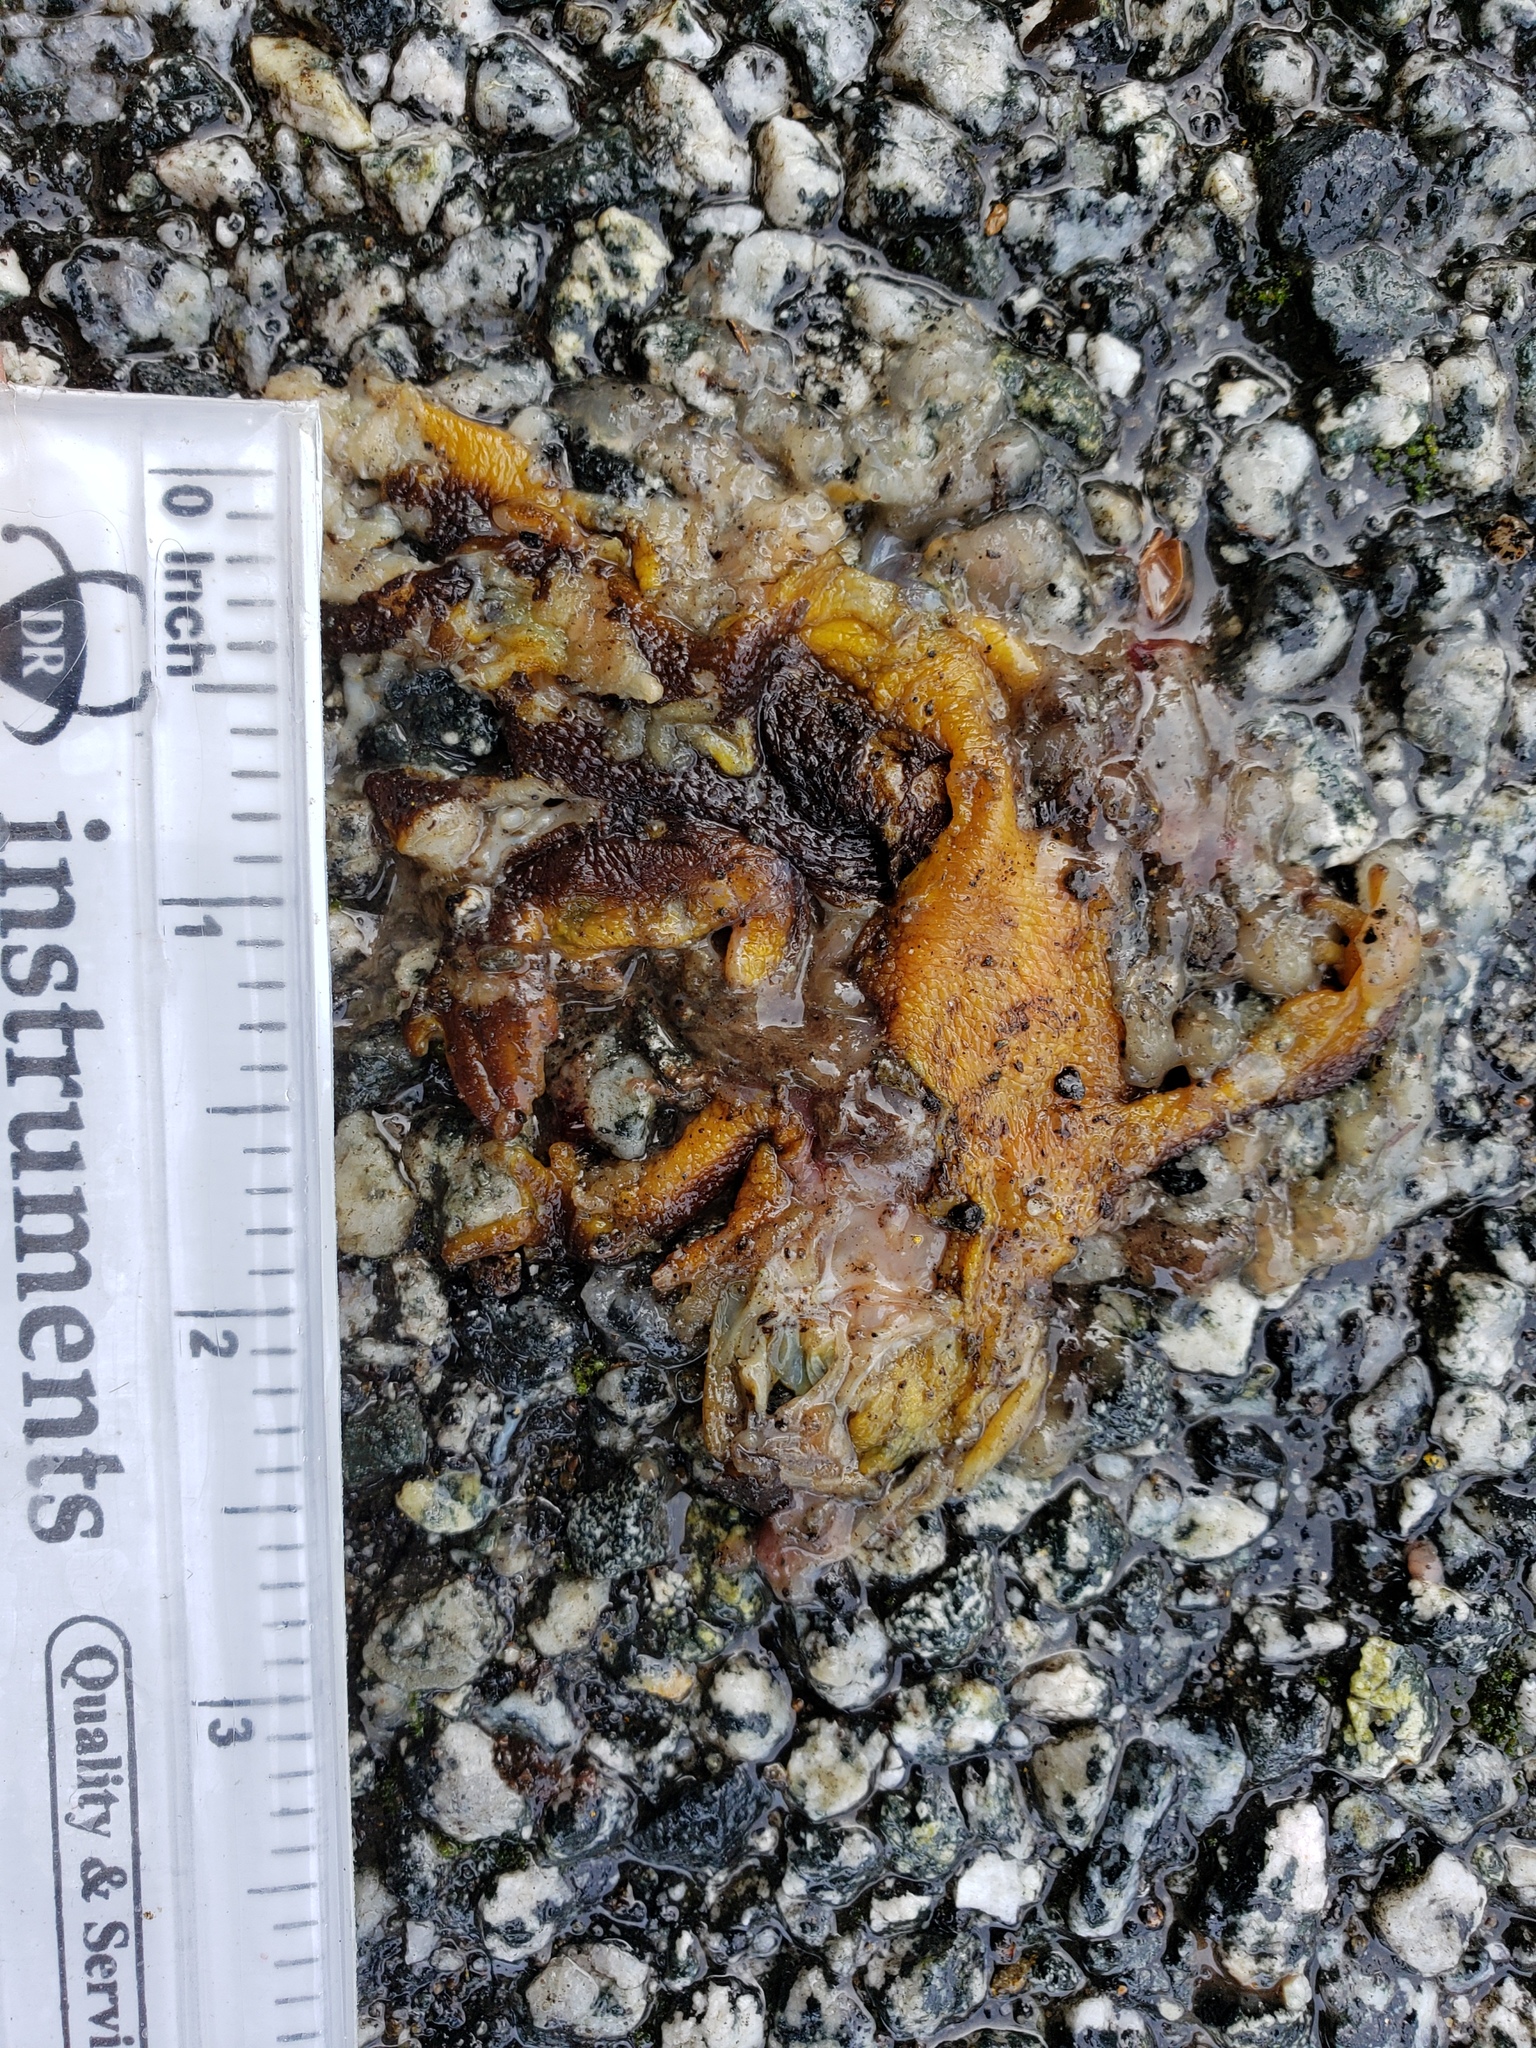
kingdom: Animalia
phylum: Chordata
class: Amphibia
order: Caudata
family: Salamandridae
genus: Taricha
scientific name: Taricha
